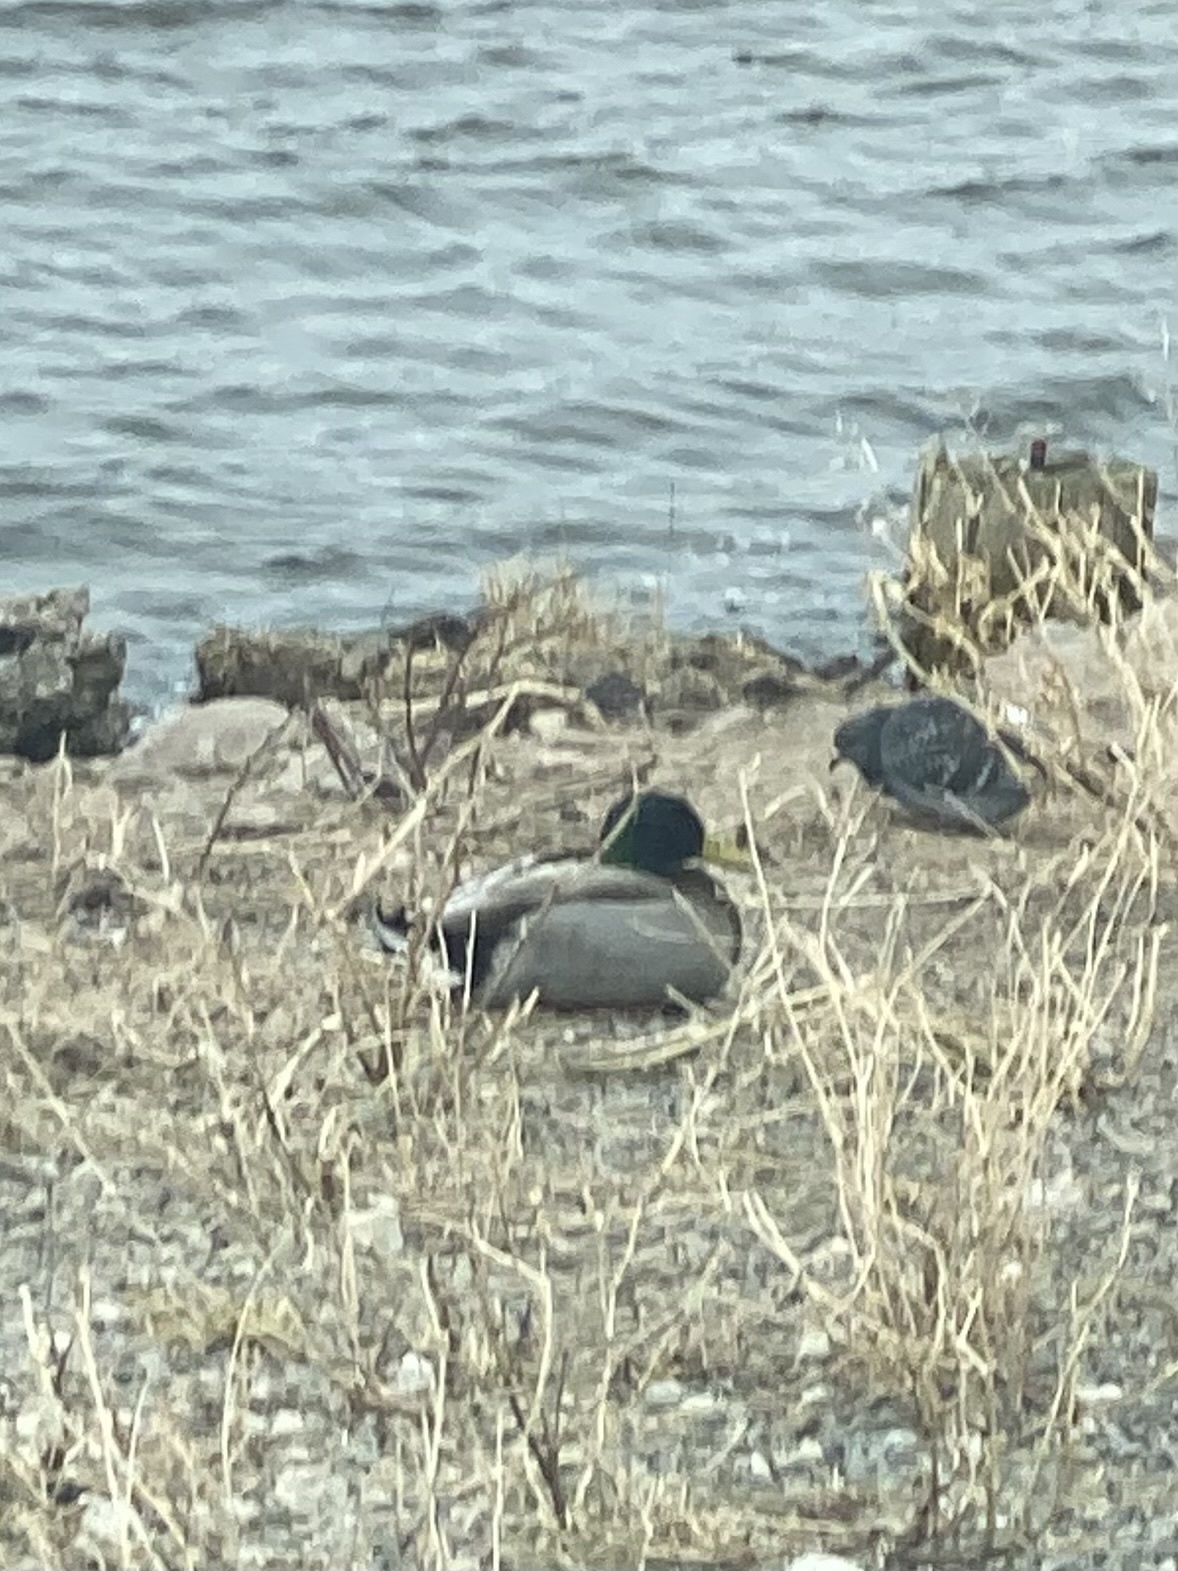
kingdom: Animalia
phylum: Chordata
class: Aves
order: Anseriformes
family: Anatidae
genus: Anas
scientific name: Anas platyrhynchos
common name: Mallard
